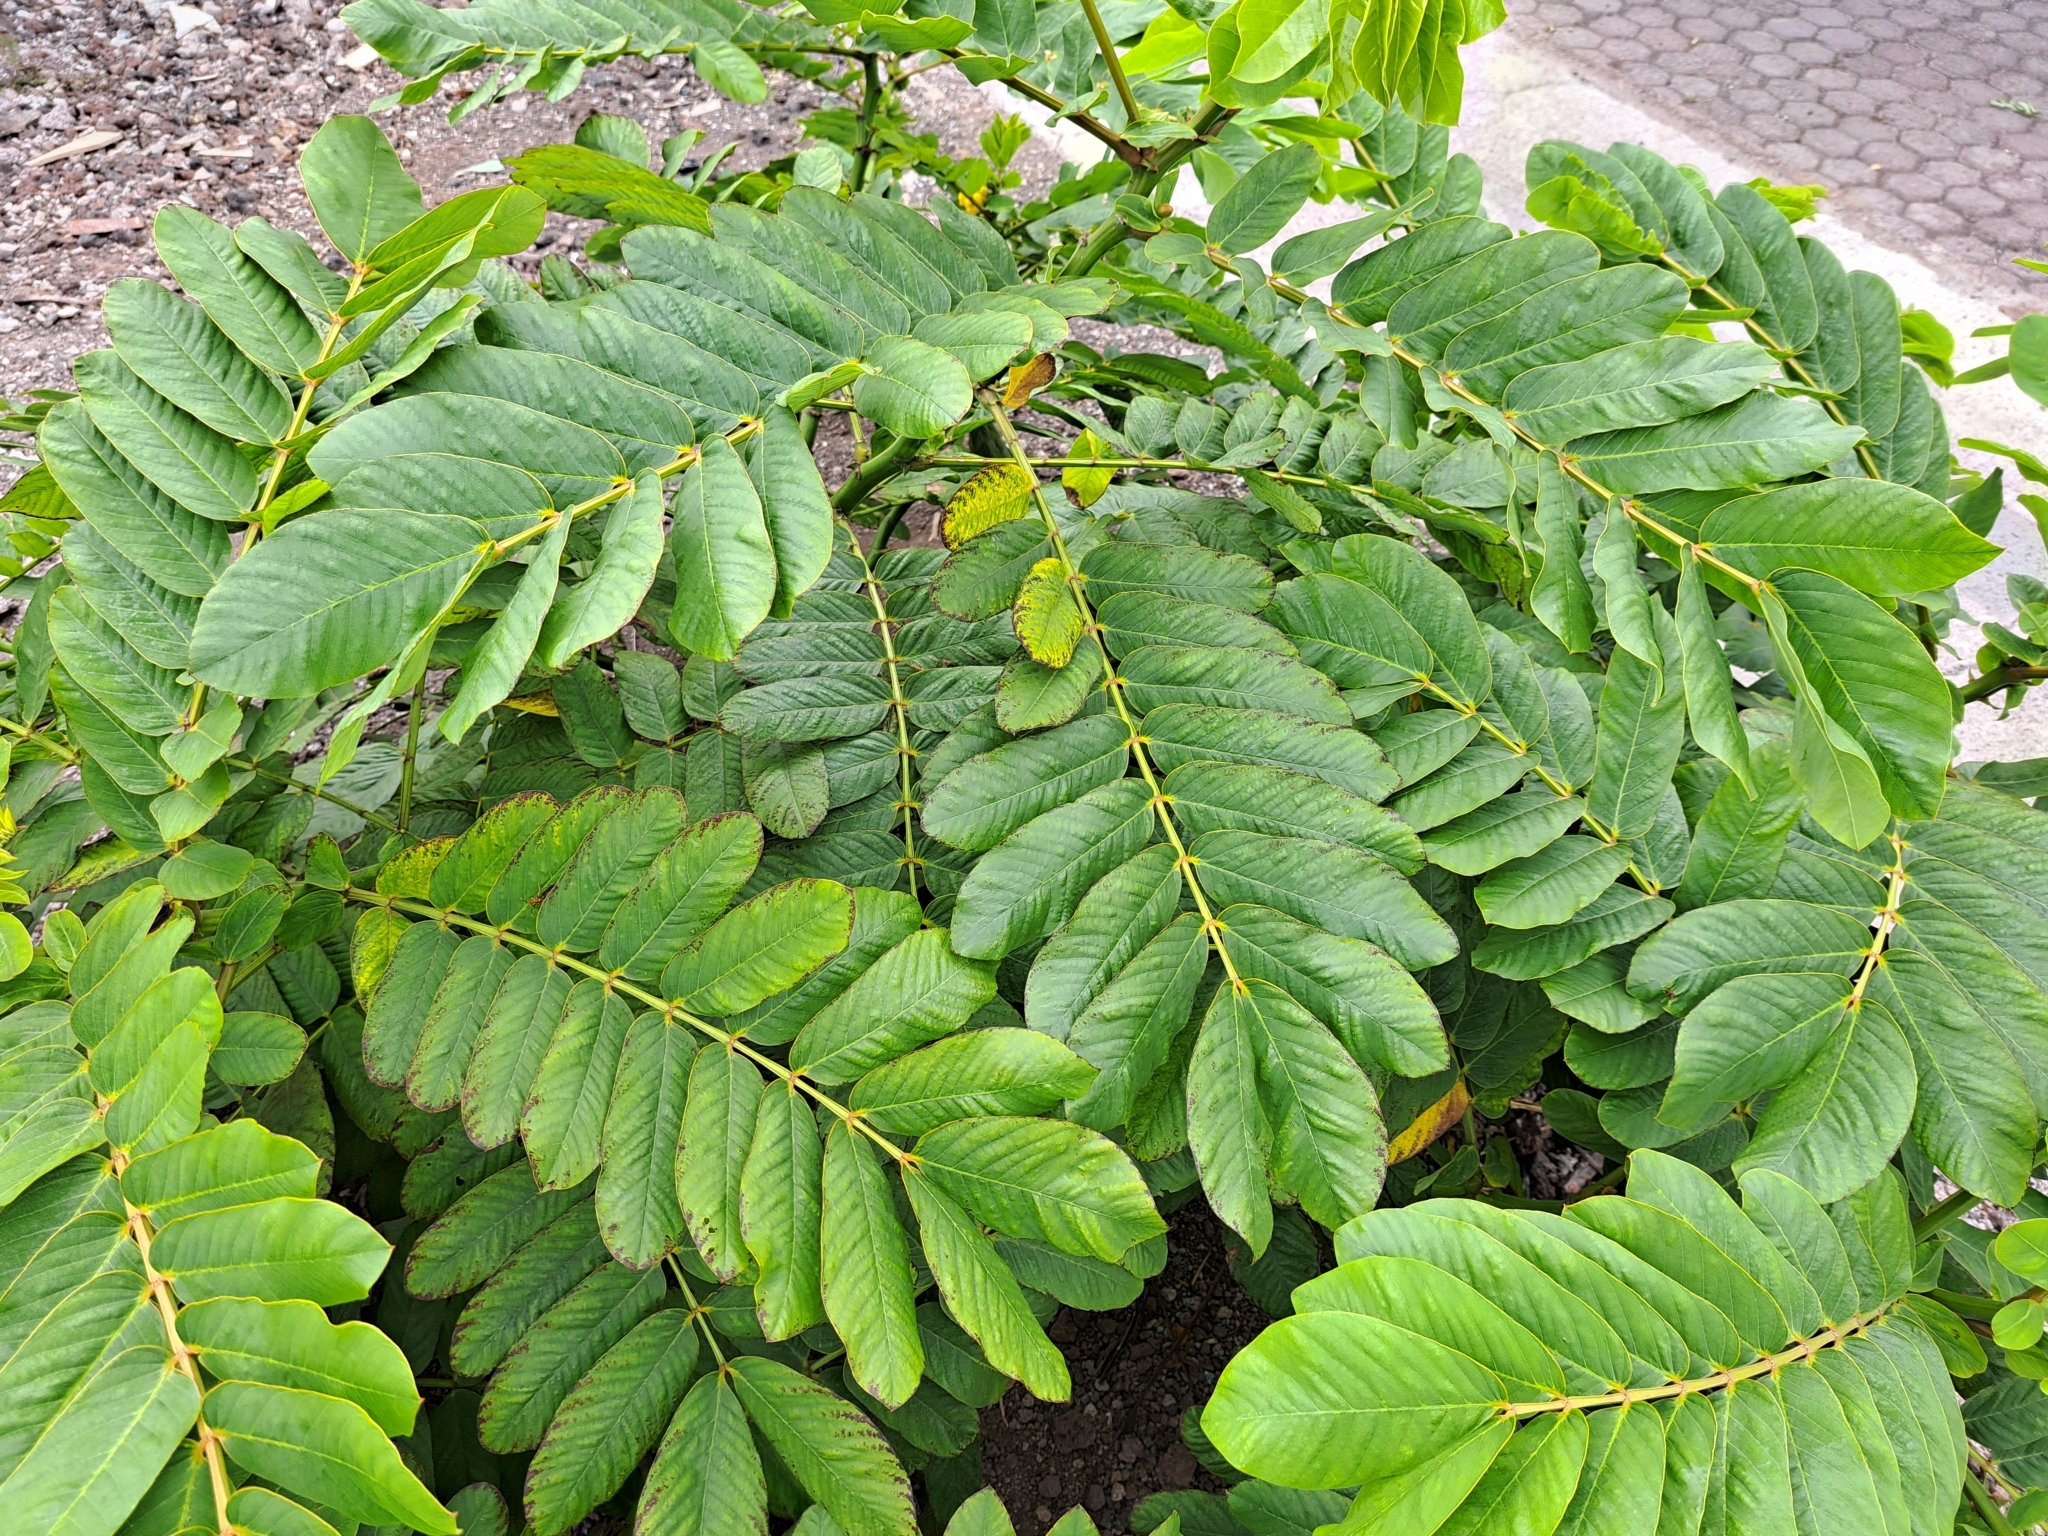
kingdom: Plantae
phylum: Tracheophyta
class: Magnoliopsida
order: Fabales
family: Fabaceae
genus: Senna
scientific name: Senna alata
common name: Emperor's candlesticks
